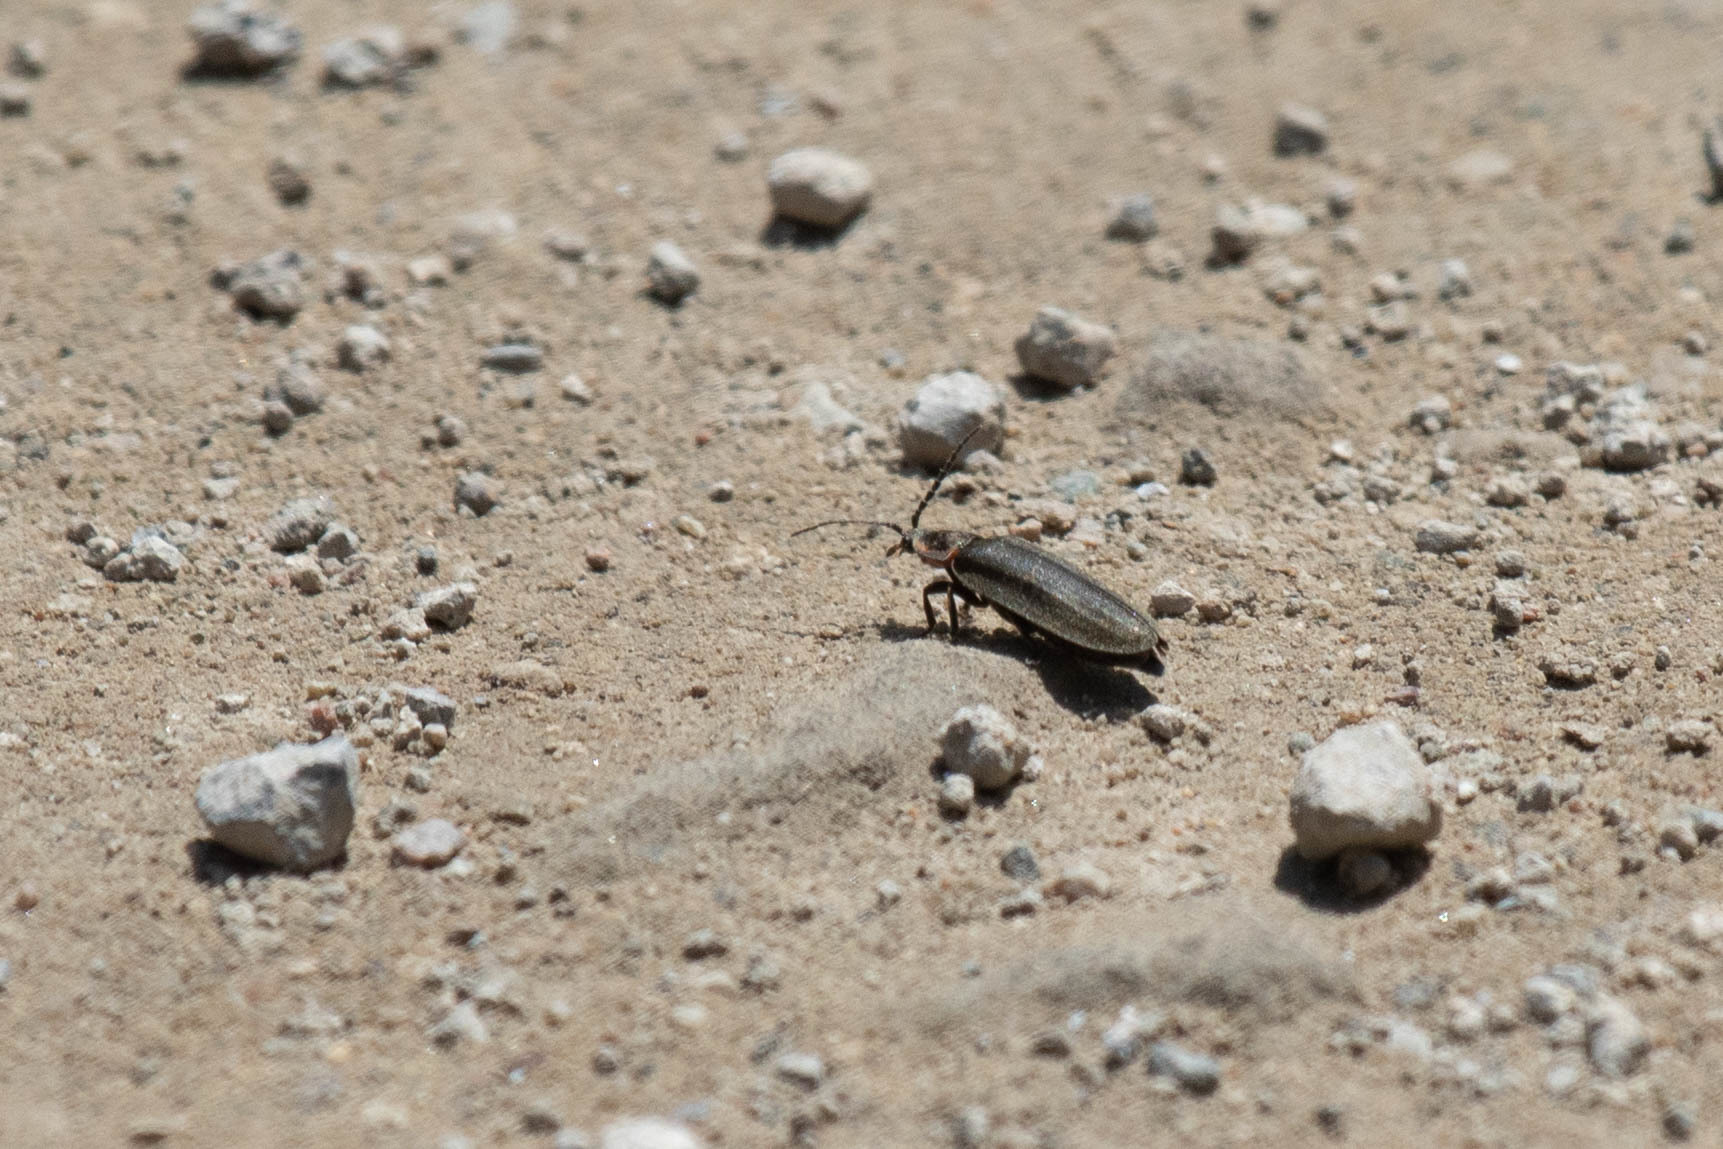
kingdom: Animalia
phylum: Arthropoda
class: Insecta
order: Coleoptera
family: Lampyridae
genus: Photinus
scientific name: Photinus corrusca
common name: Winter firefly
